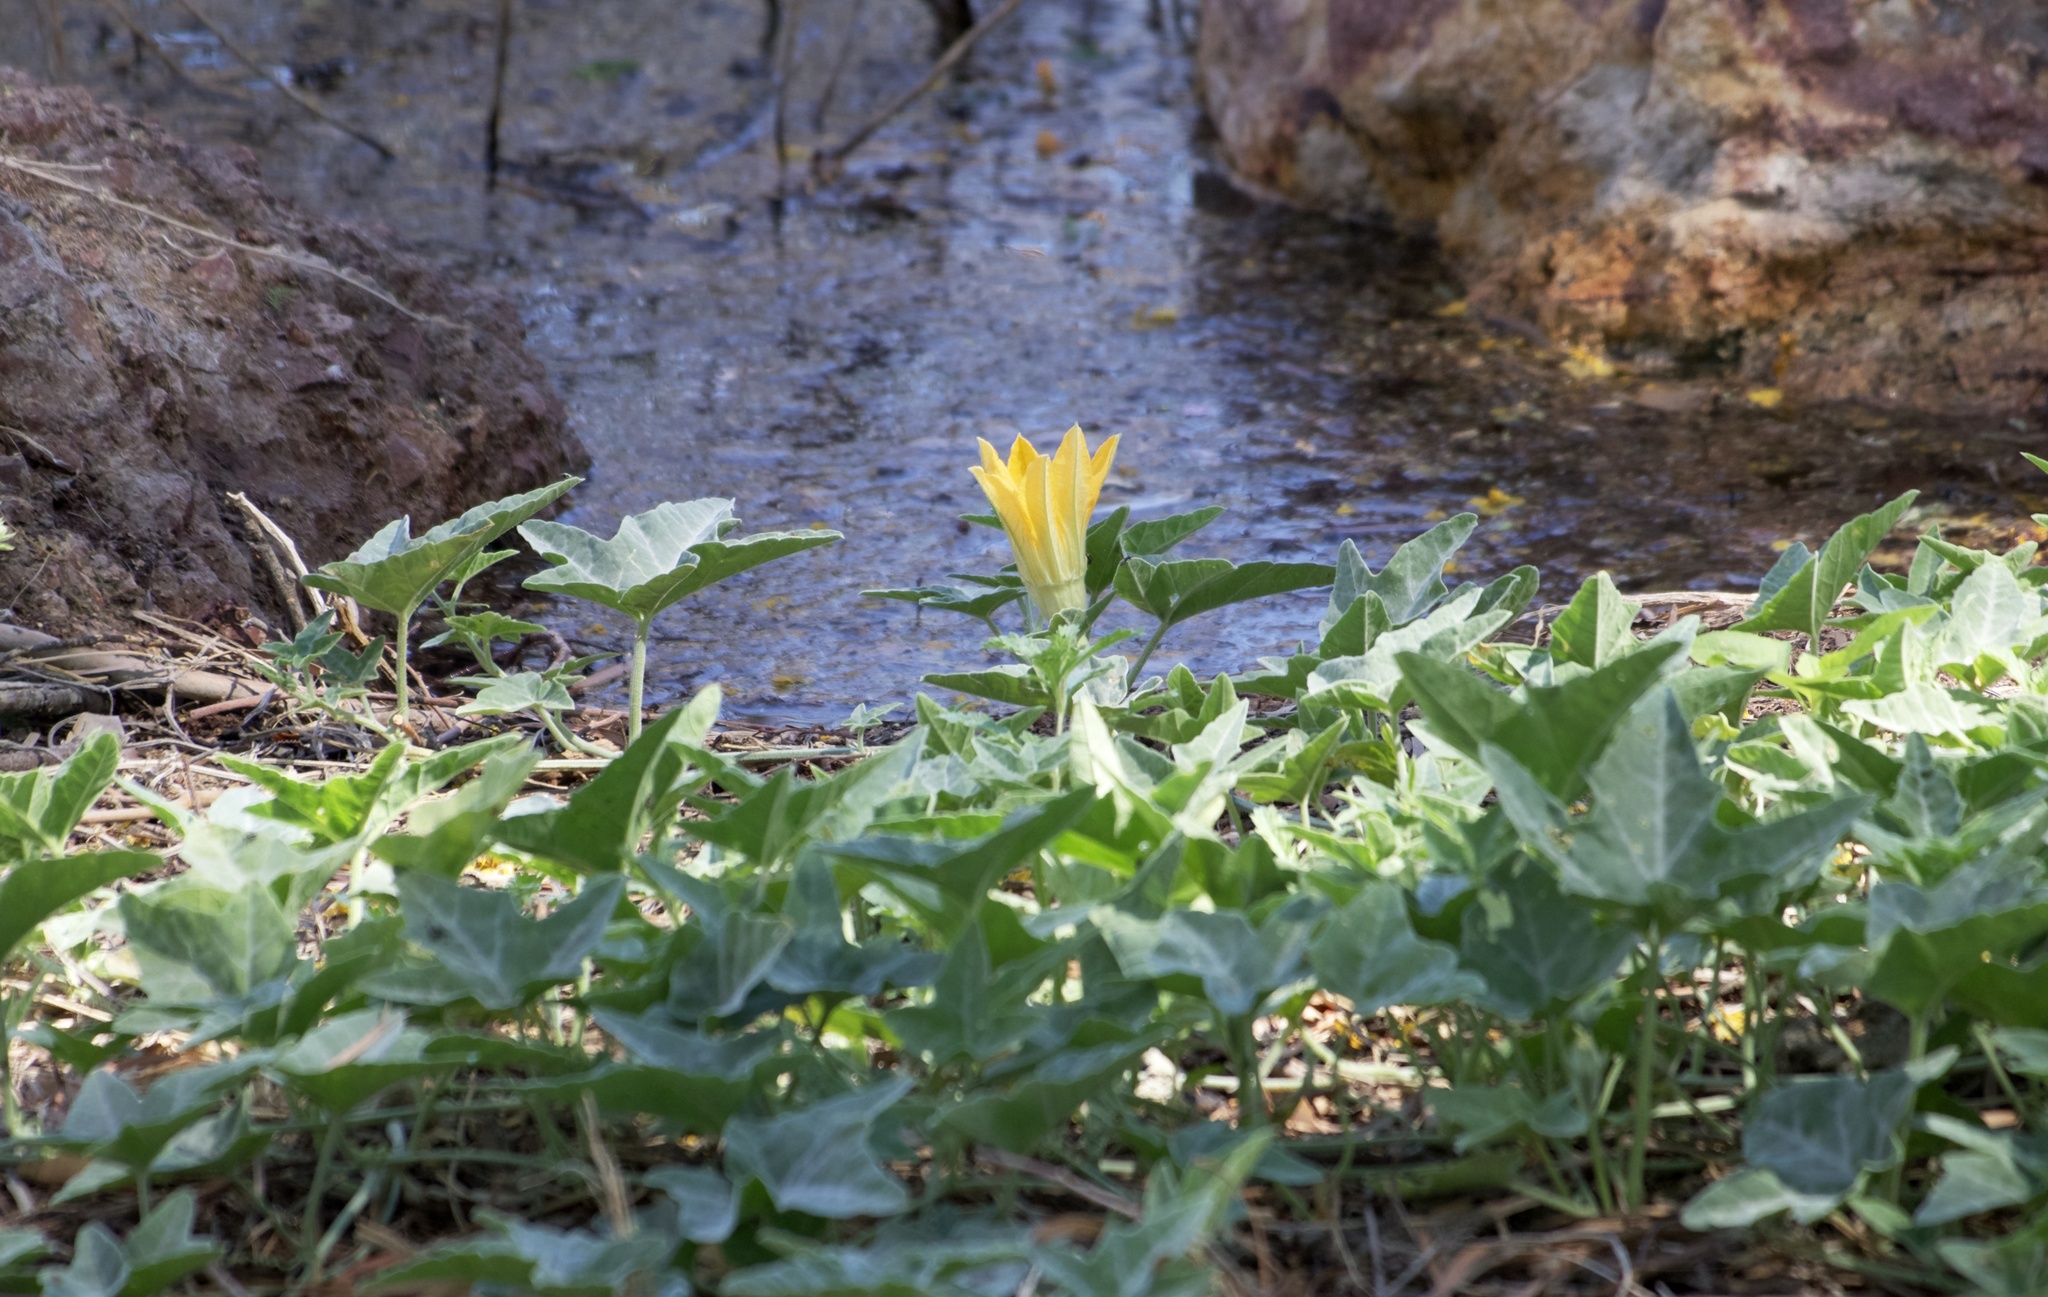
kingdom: Plantae
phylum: Tracheophyta
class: Magnoliopsida
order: Cucurbitales
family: Cucurbitaceae
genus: Cucurbita
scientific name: Cucurbita palmata
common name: Coyote-melon
